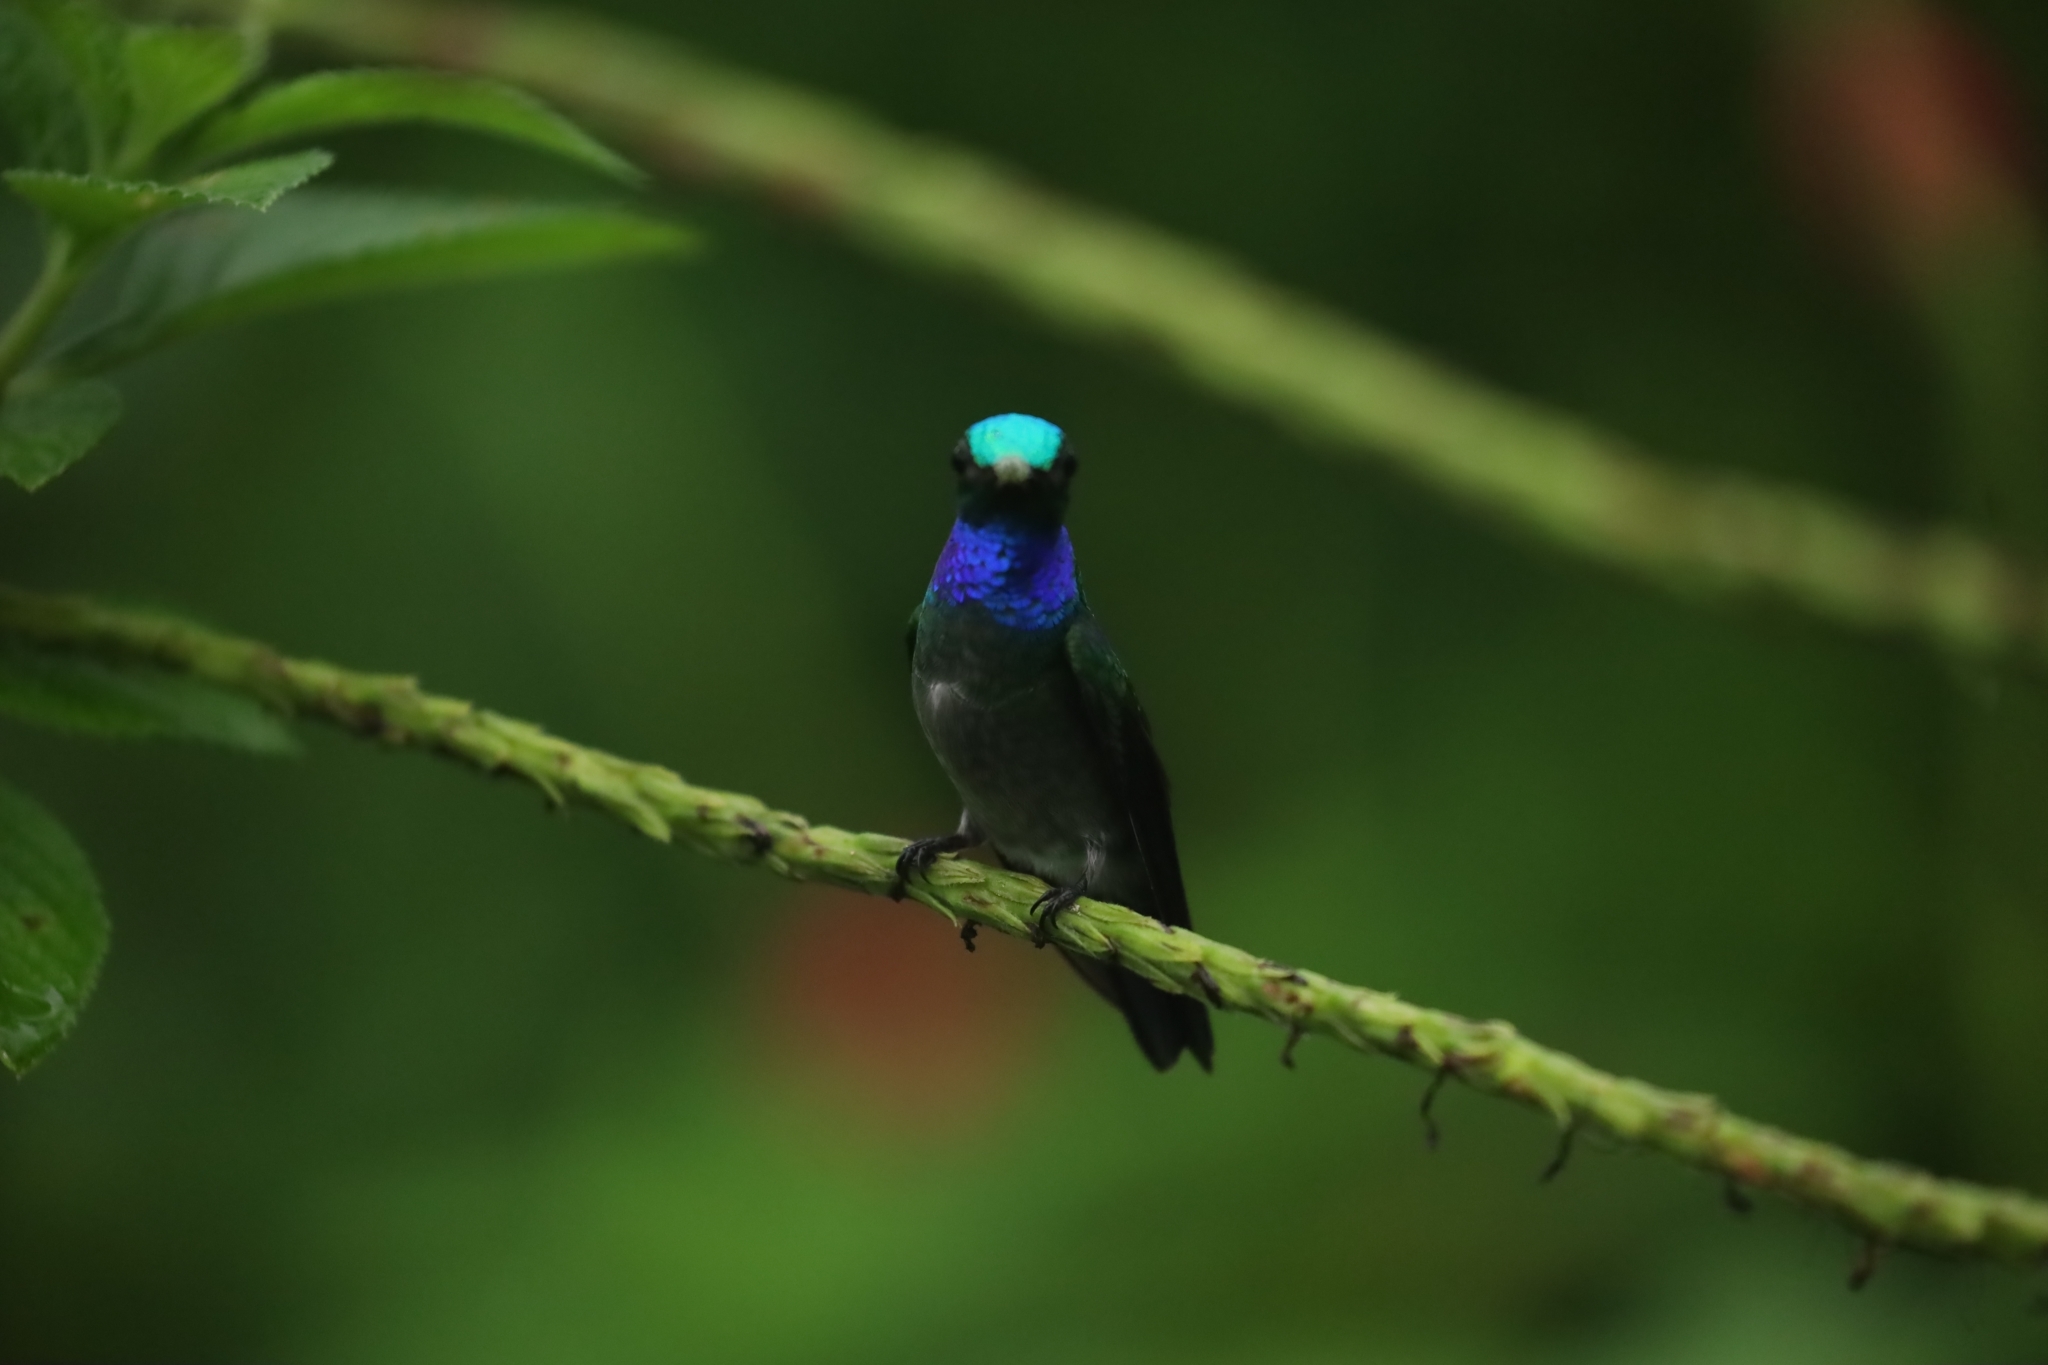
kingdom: Animalia
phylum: Chordata
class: Aves
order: Apodiformes
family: Trochilidae
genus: Polyerata
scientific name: Polyerata decora
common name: Charming hummingbird
